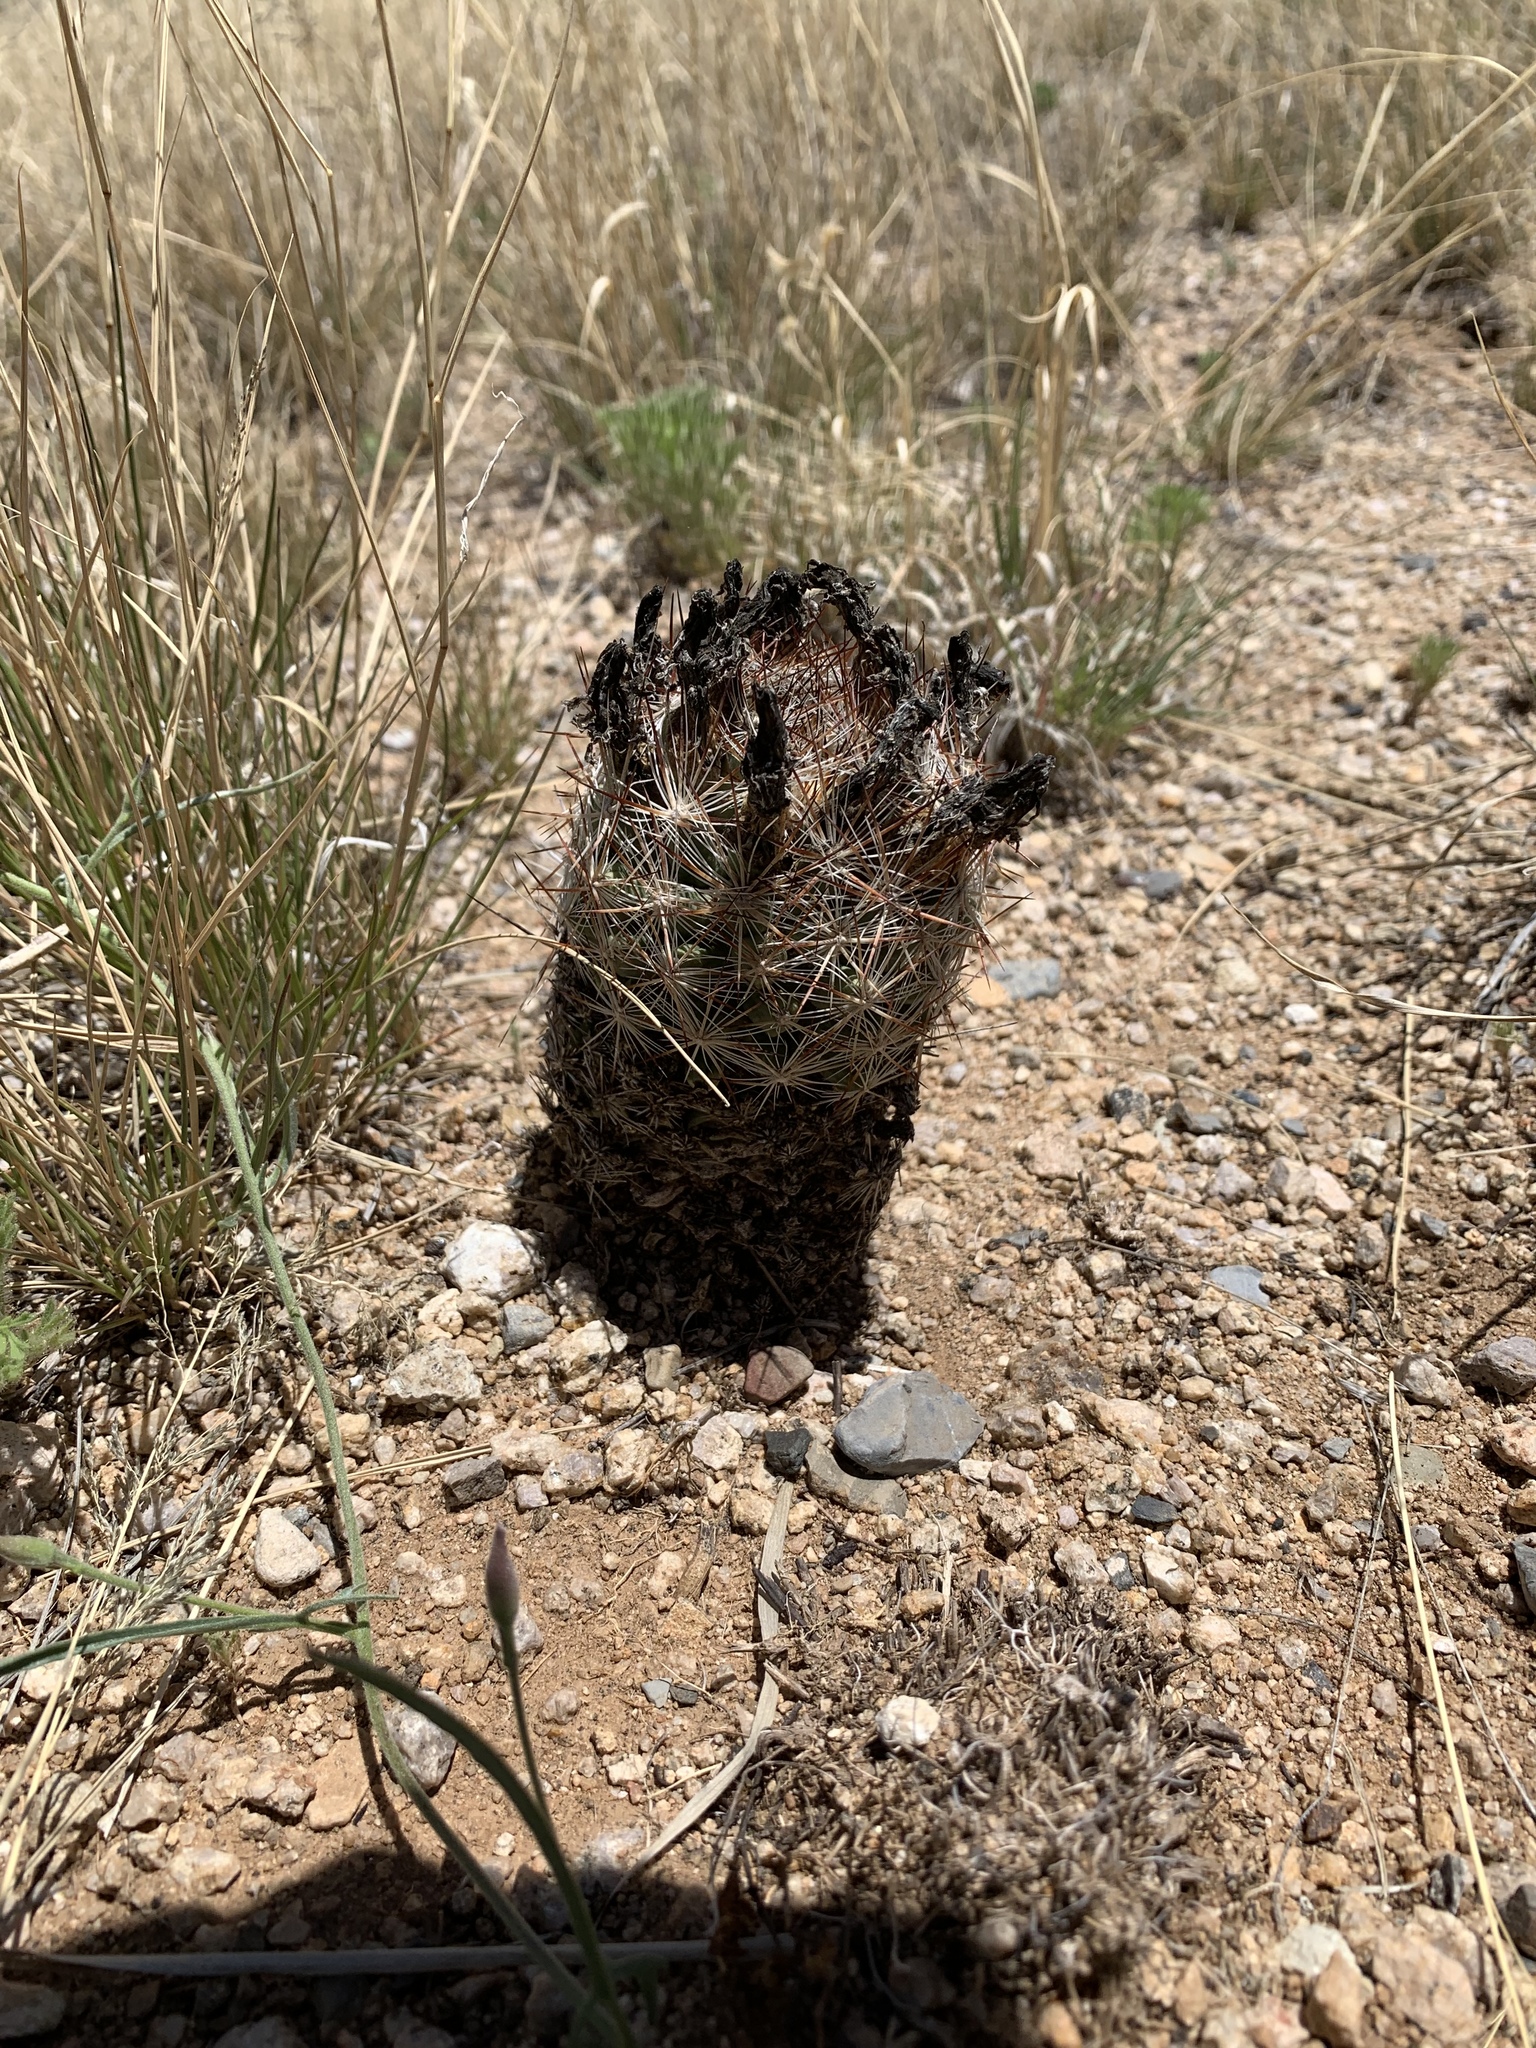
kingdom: Plantae
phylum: Tracheophyta
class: Magnoliopsida
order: Caryophyllales
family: Cactaceae
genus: Pelecyphora
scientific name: Pelecyphora vivipara
